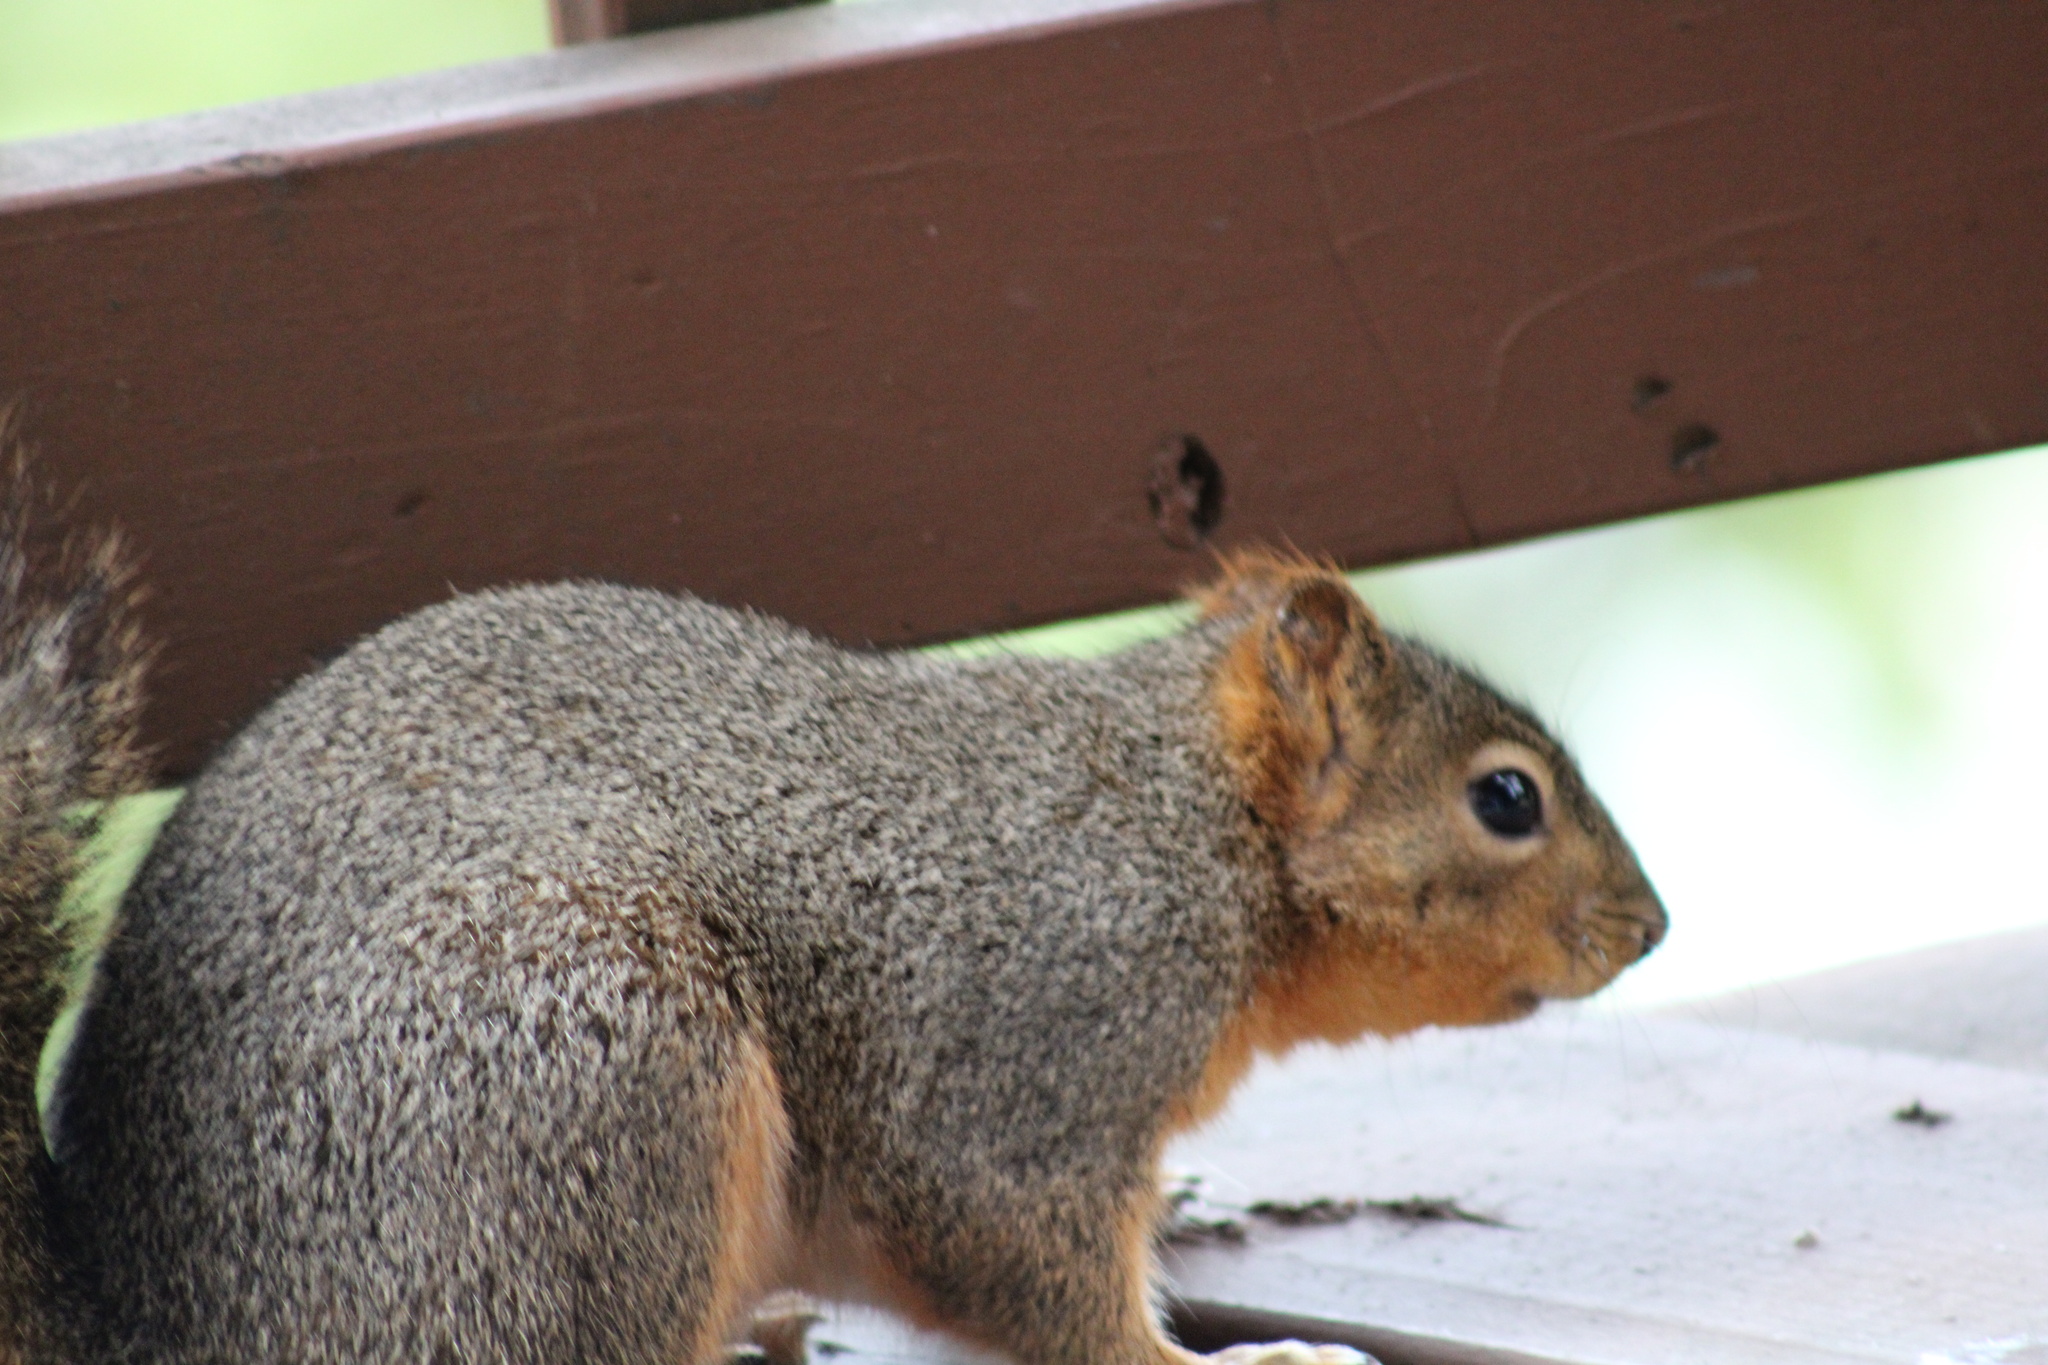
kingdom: Animalia
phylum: Chordata
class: Mammalia
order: Rodentia
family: Sciuridae
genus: Sciurus
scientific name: Sciurus niger
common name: Fox squirrel
